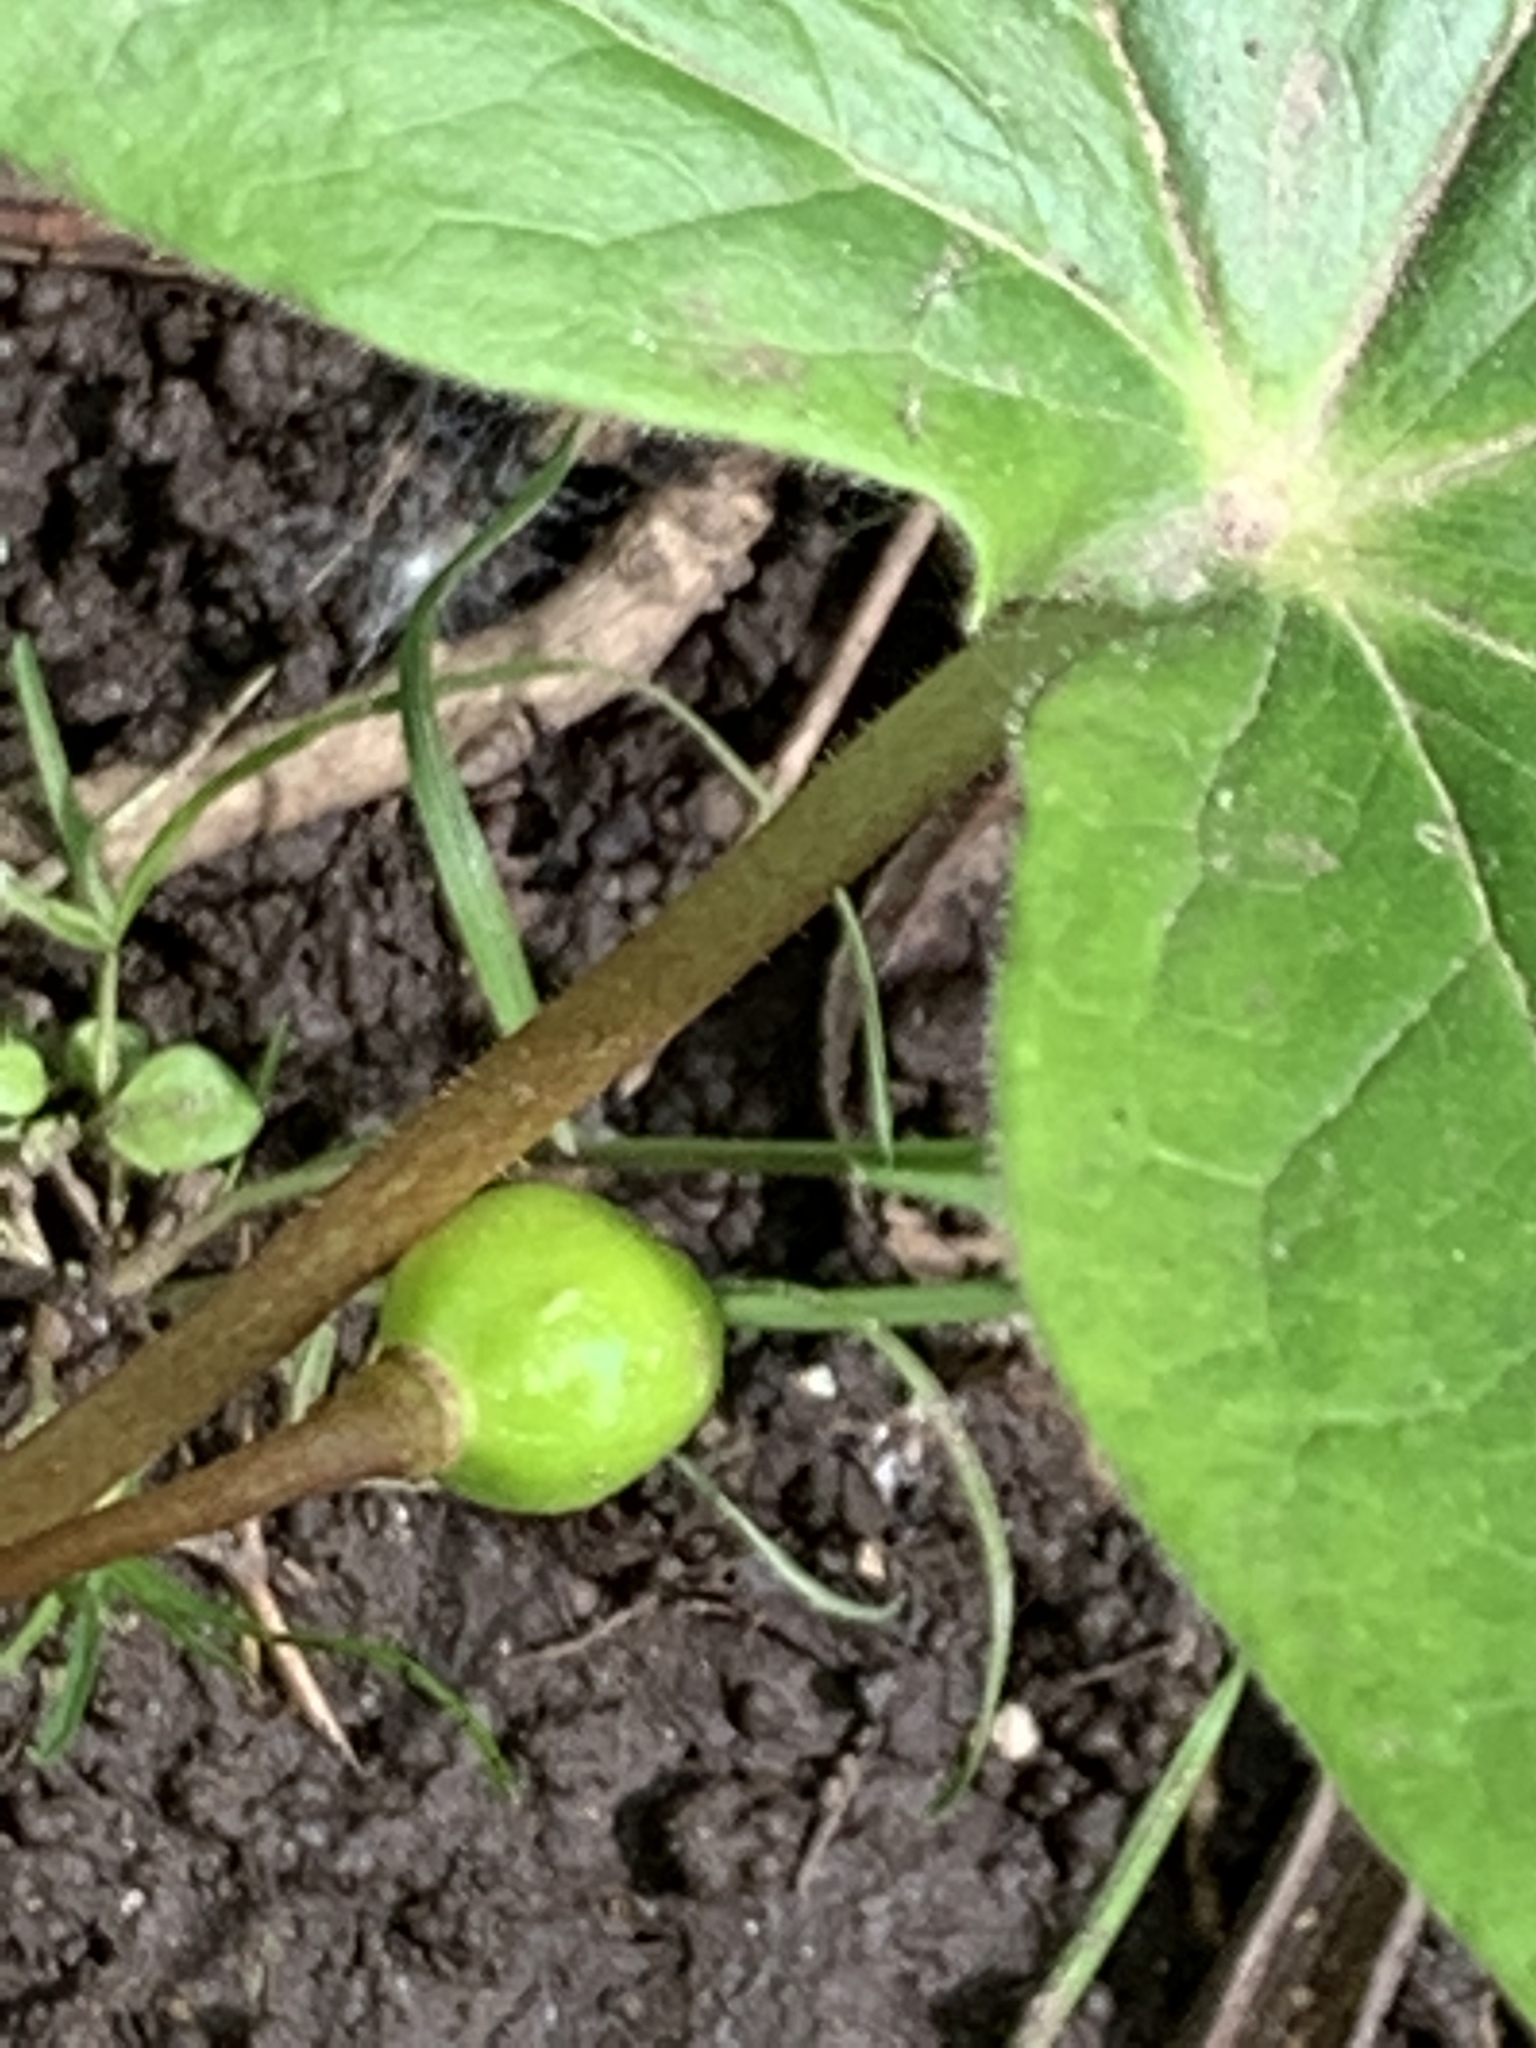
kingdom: Plantae
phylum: Tracheophyta
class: Magnoliopsida
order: Ranunculales
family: Berberidaceae
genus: Podophyllum
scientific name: Podophyllum peltatum
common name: Wild mandrake
